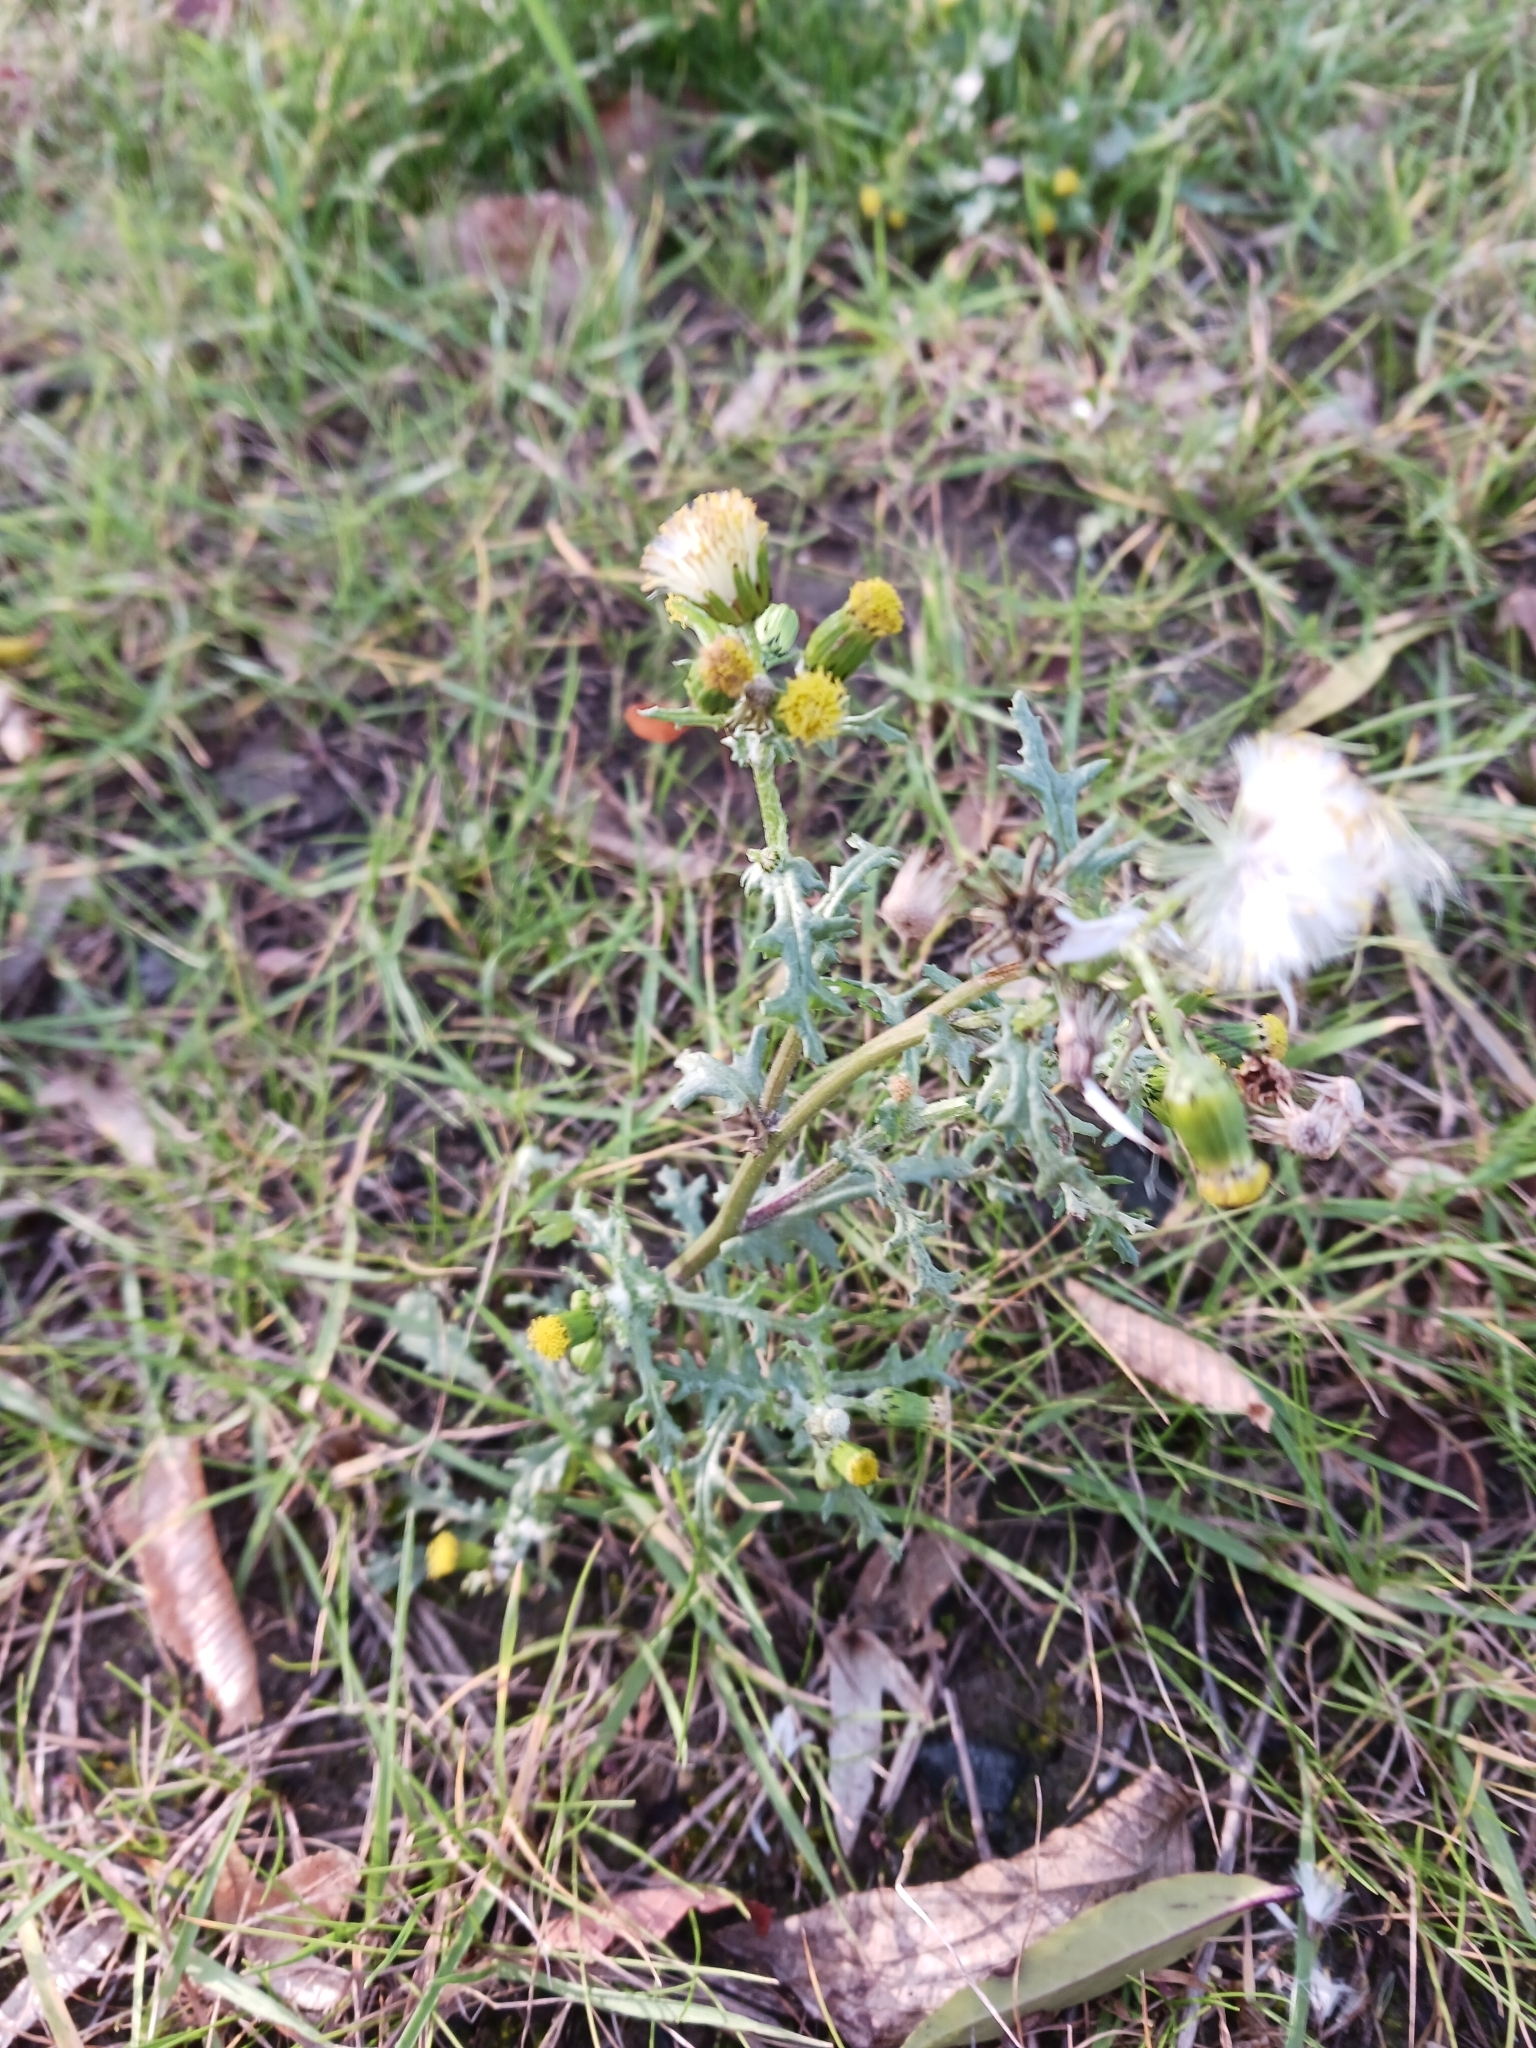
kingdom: Plantae
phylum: Tracheophyta
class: Magnoliopsida
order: Asterales
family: Asteraceae
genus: Senecio
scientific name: Senecio vulgaris
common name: Old-man-in-the-spring
